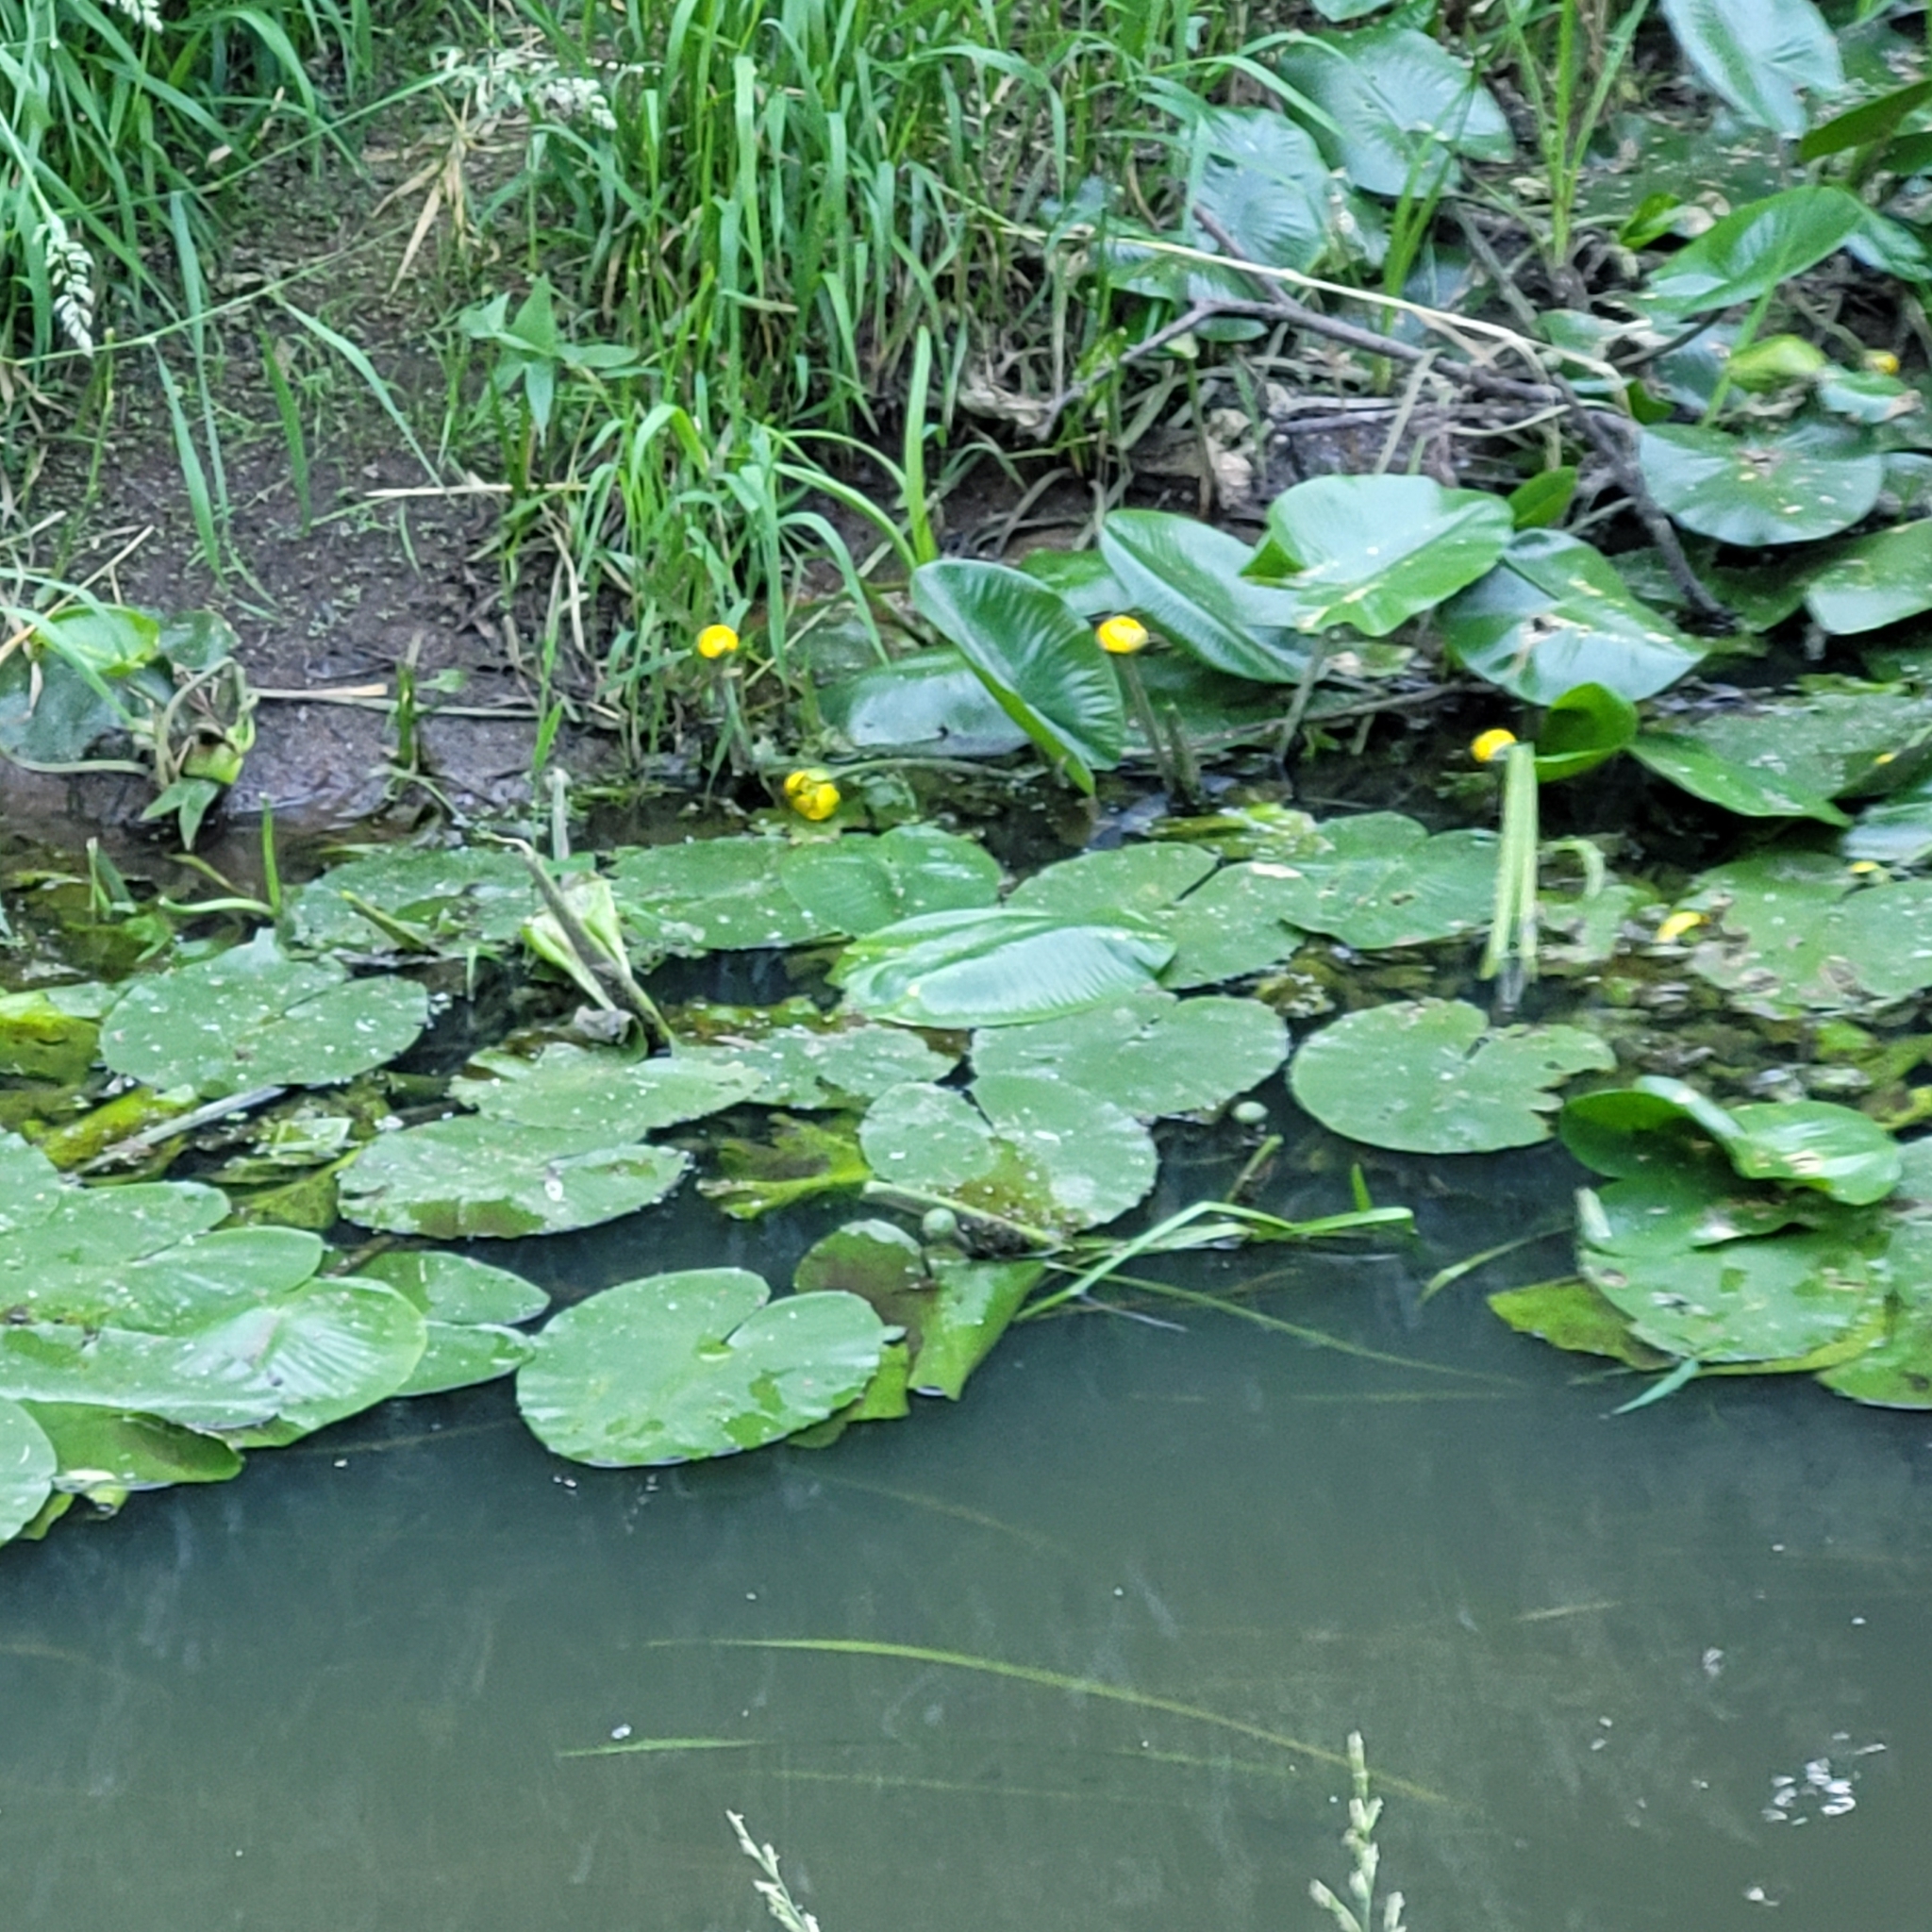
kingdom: Plantae
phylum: Tracheophyta
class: Magnoliopsida
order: Nymphaeales
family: Nymphaeaceae
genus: Nuphar
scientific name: Nuphar lutea
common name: Yellow water-lily
